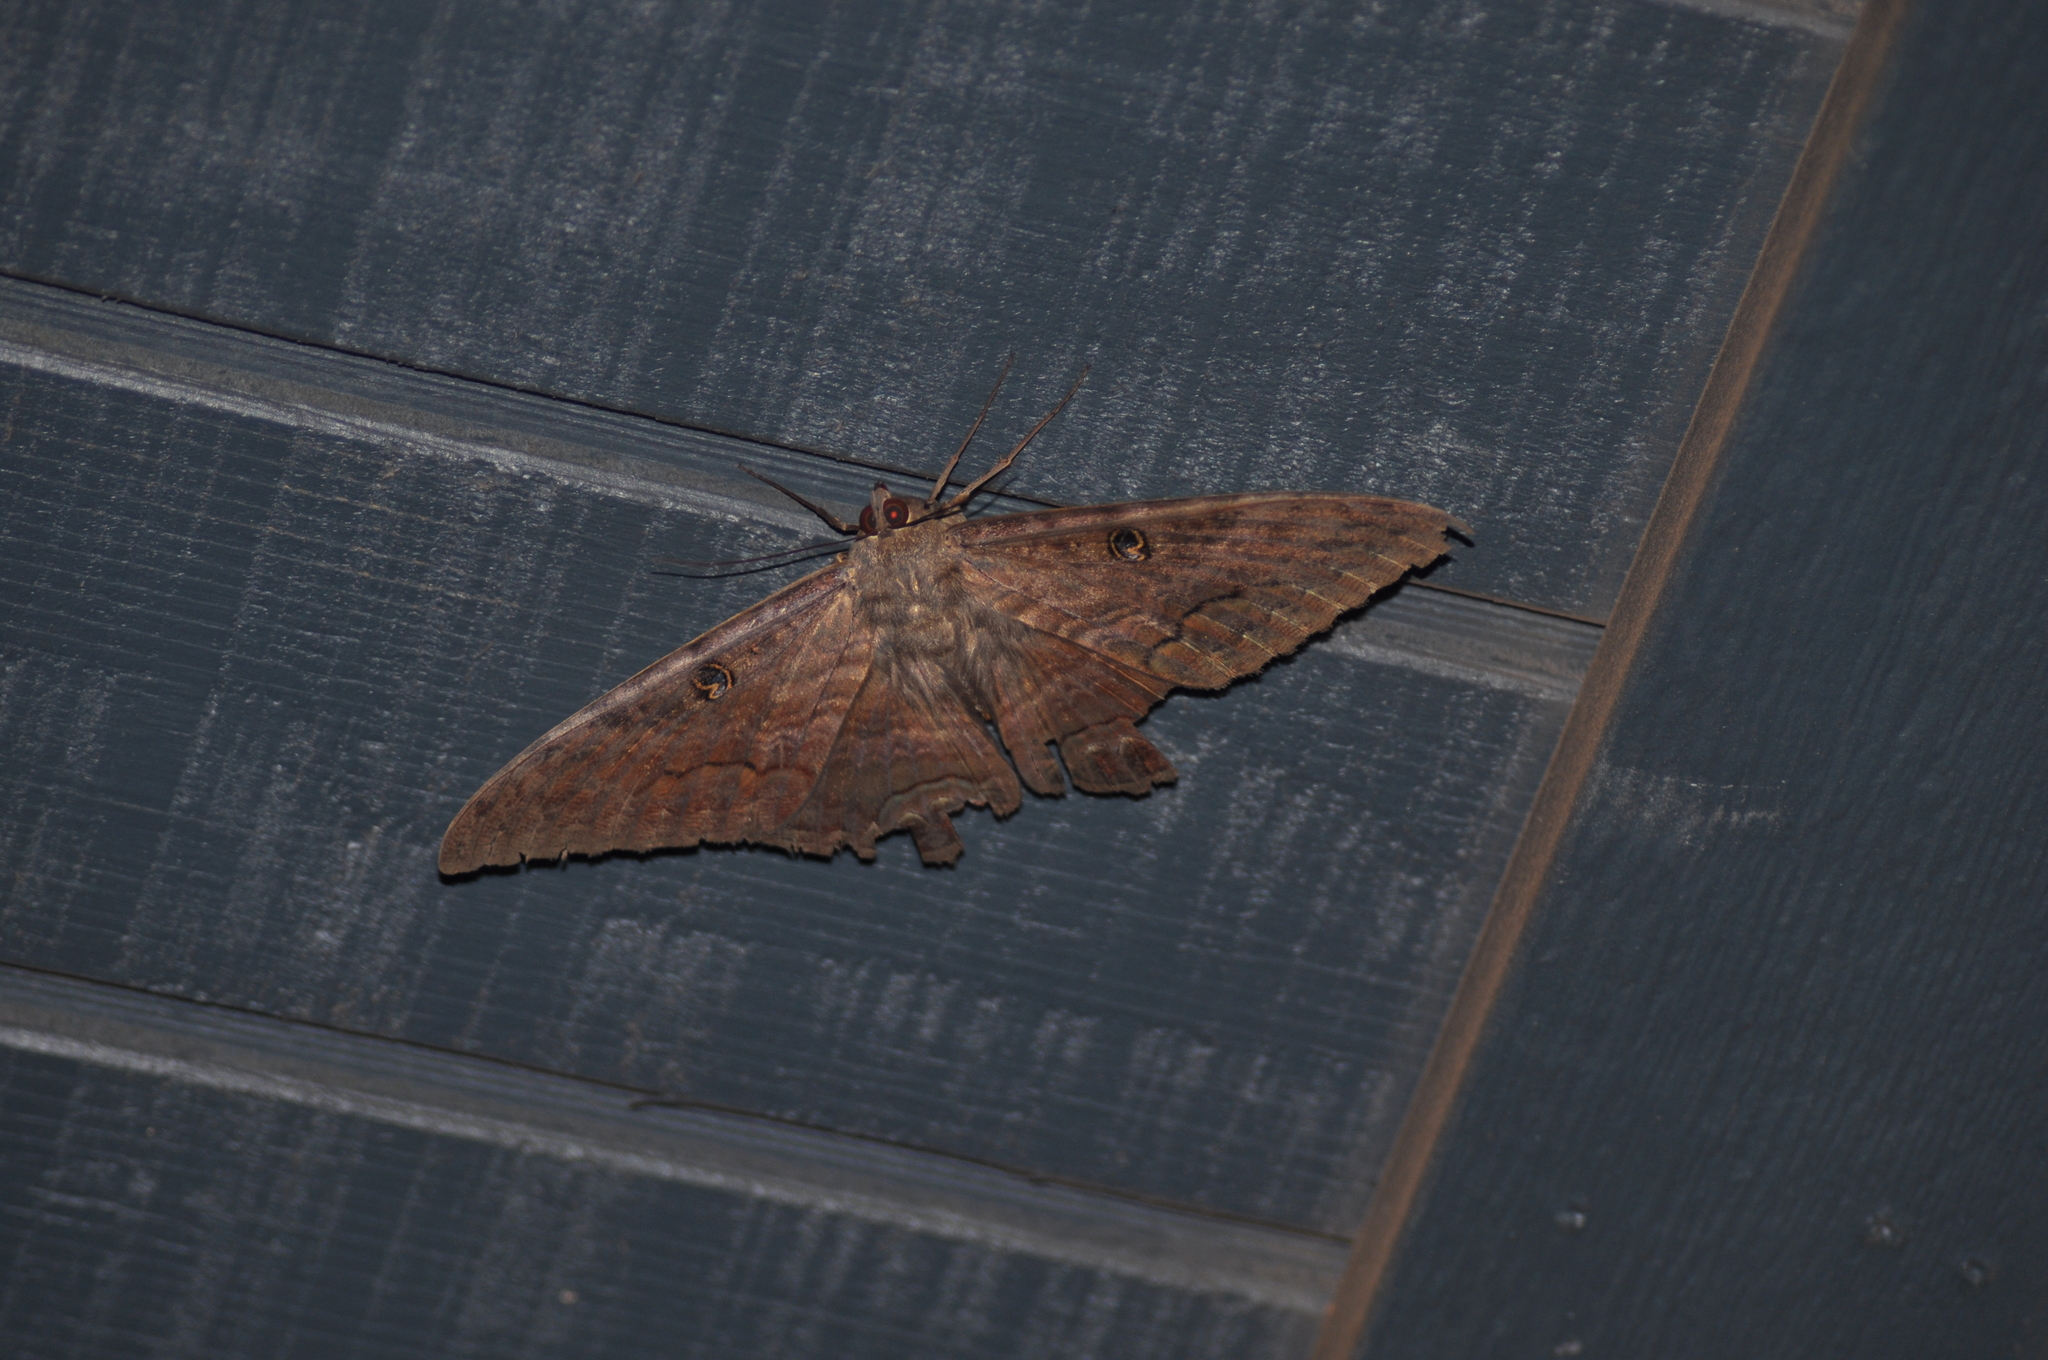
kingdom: Animalia
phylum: Arthropoda
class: Insecta
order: Lepidoptera
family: Erebidae
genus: Ascalapha
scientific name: Ascalapha odorata
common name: Black witch
